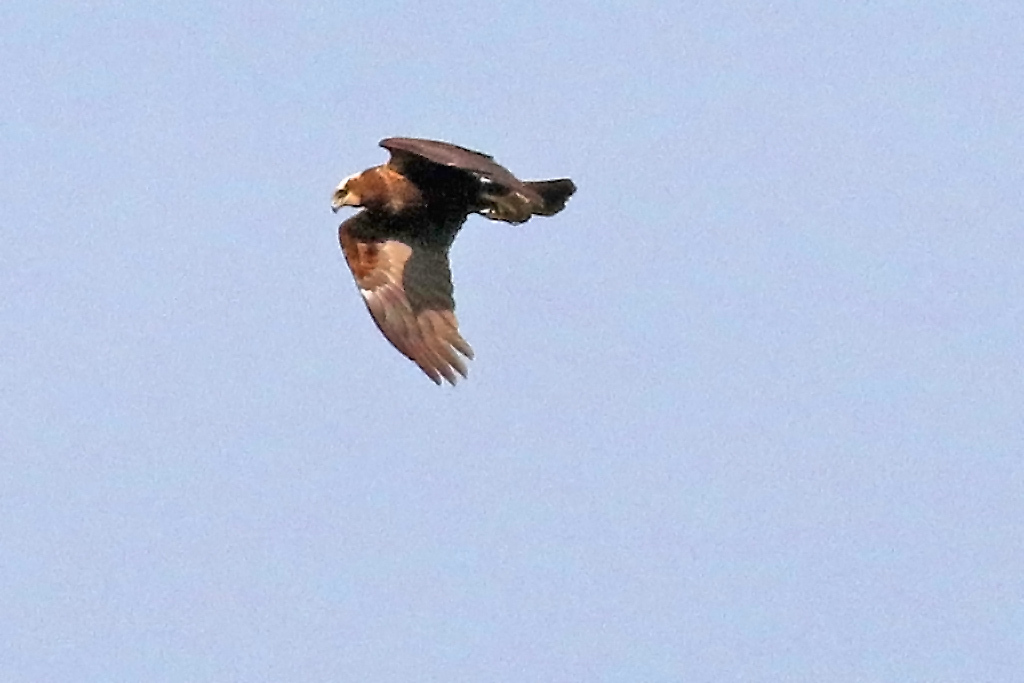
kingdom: Animalia
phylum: Chordata
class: Aves
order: Accipitriformes
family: Accipitridae
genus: Circus
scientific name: Circus aeruginosus
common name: Western marsh harrier
